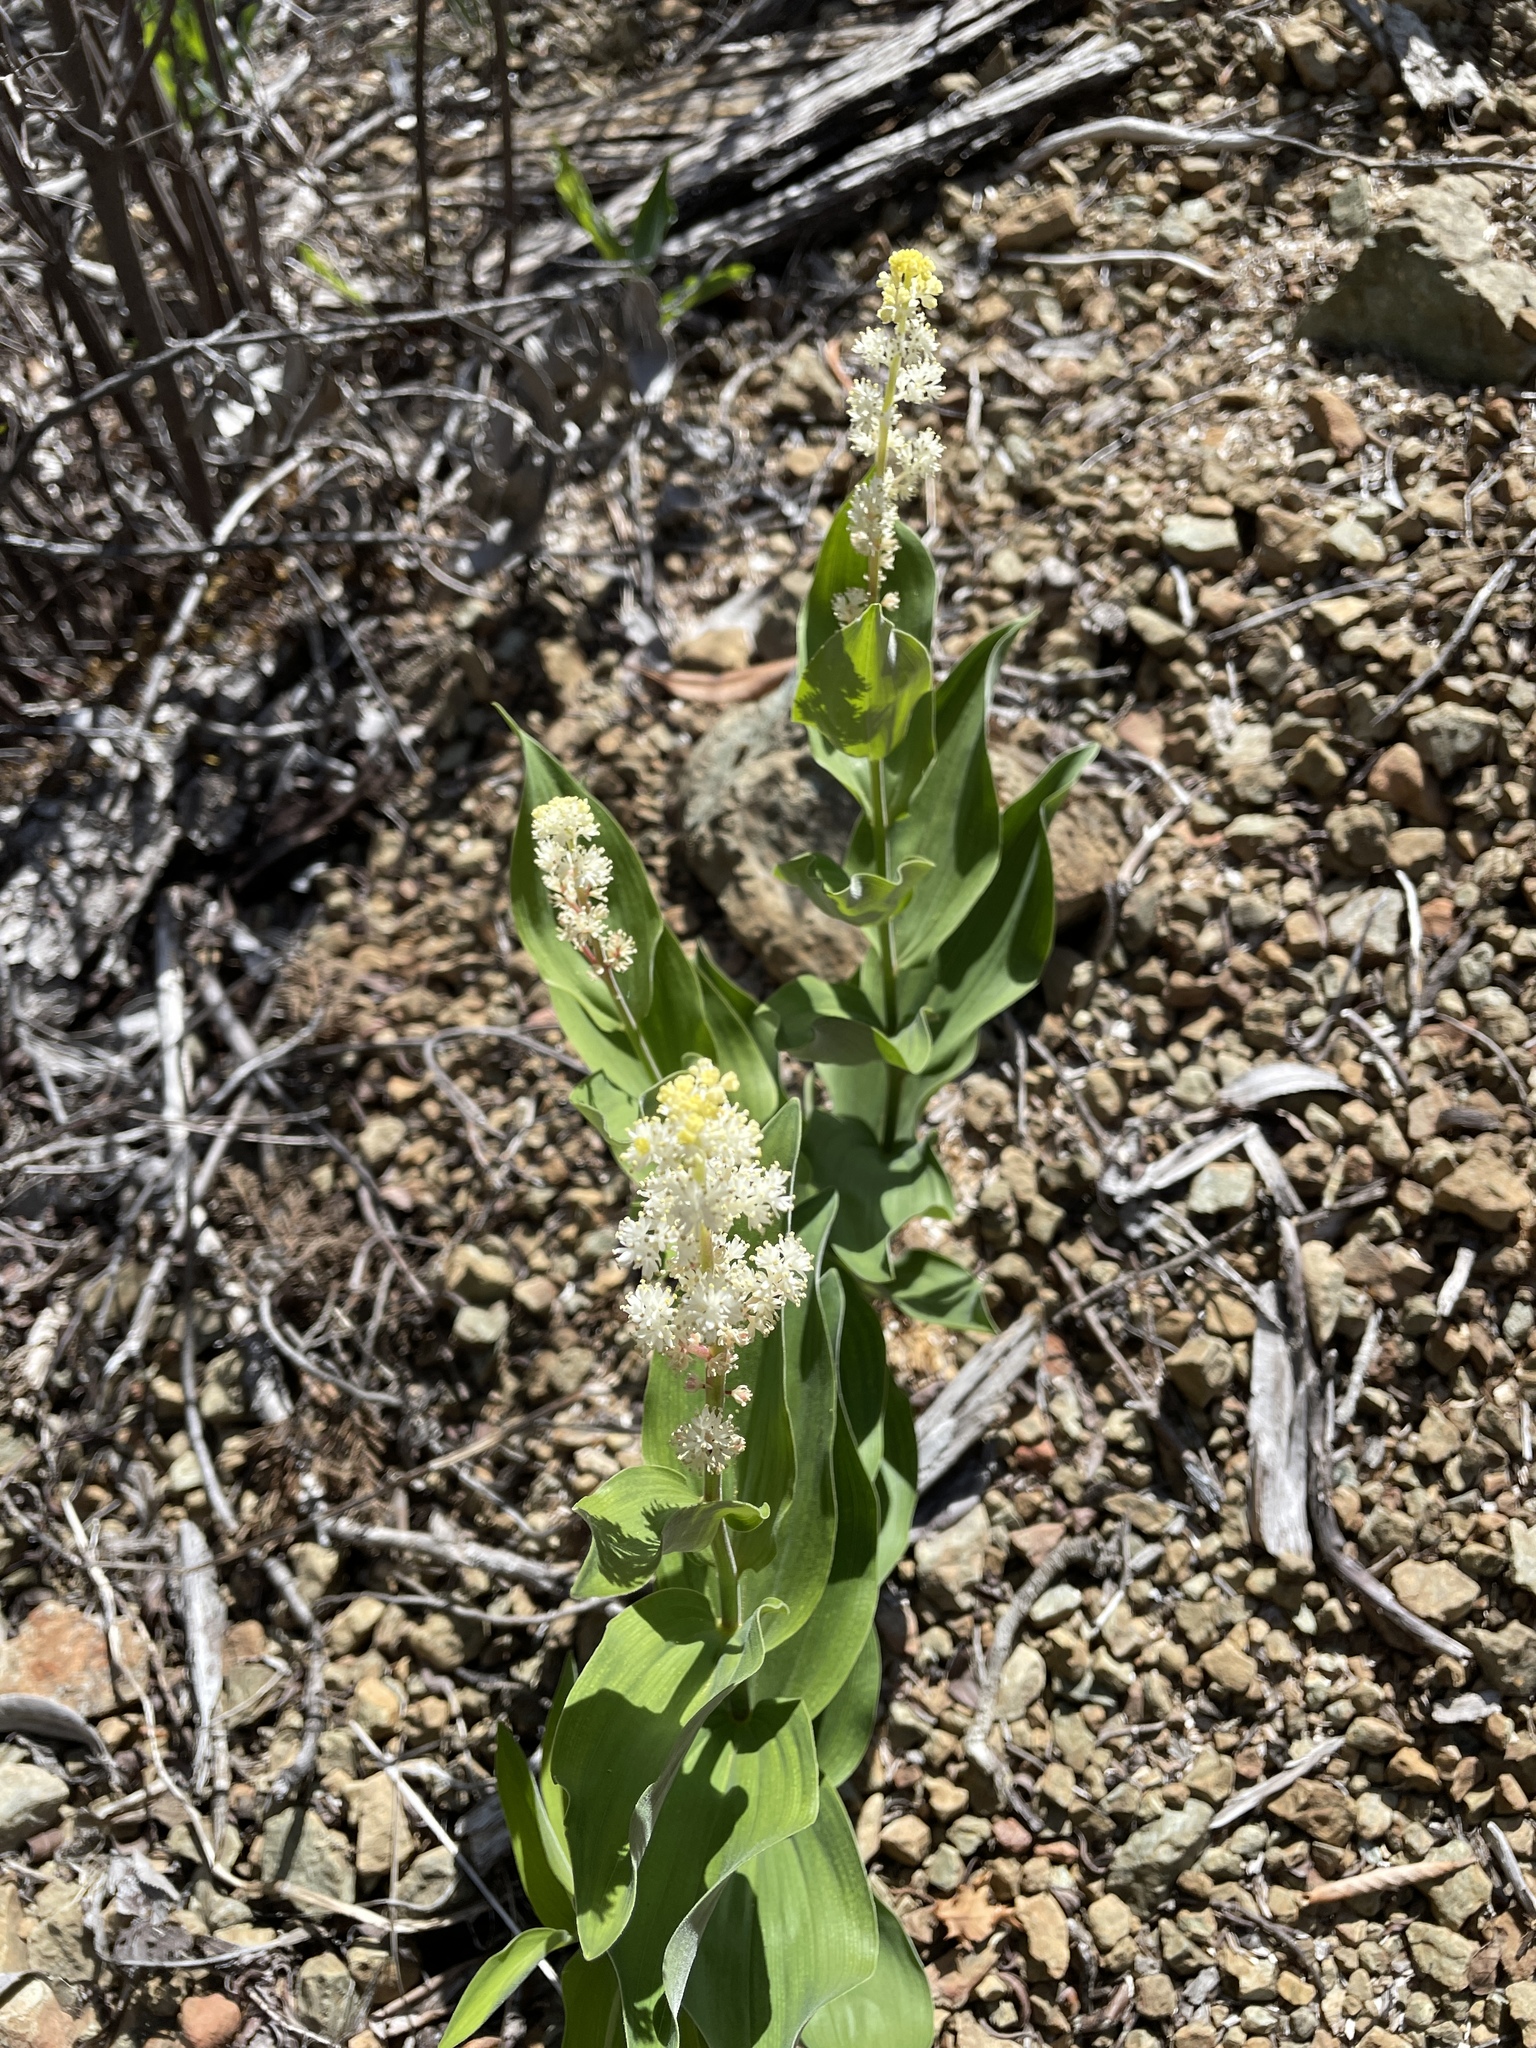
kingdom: Plantae
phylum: Tracheophyta
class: Liliopsida
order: Asparagales
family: Asparagaceae
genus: Maianthemum
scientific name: Maianthemum racemosum
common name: False spikenard
